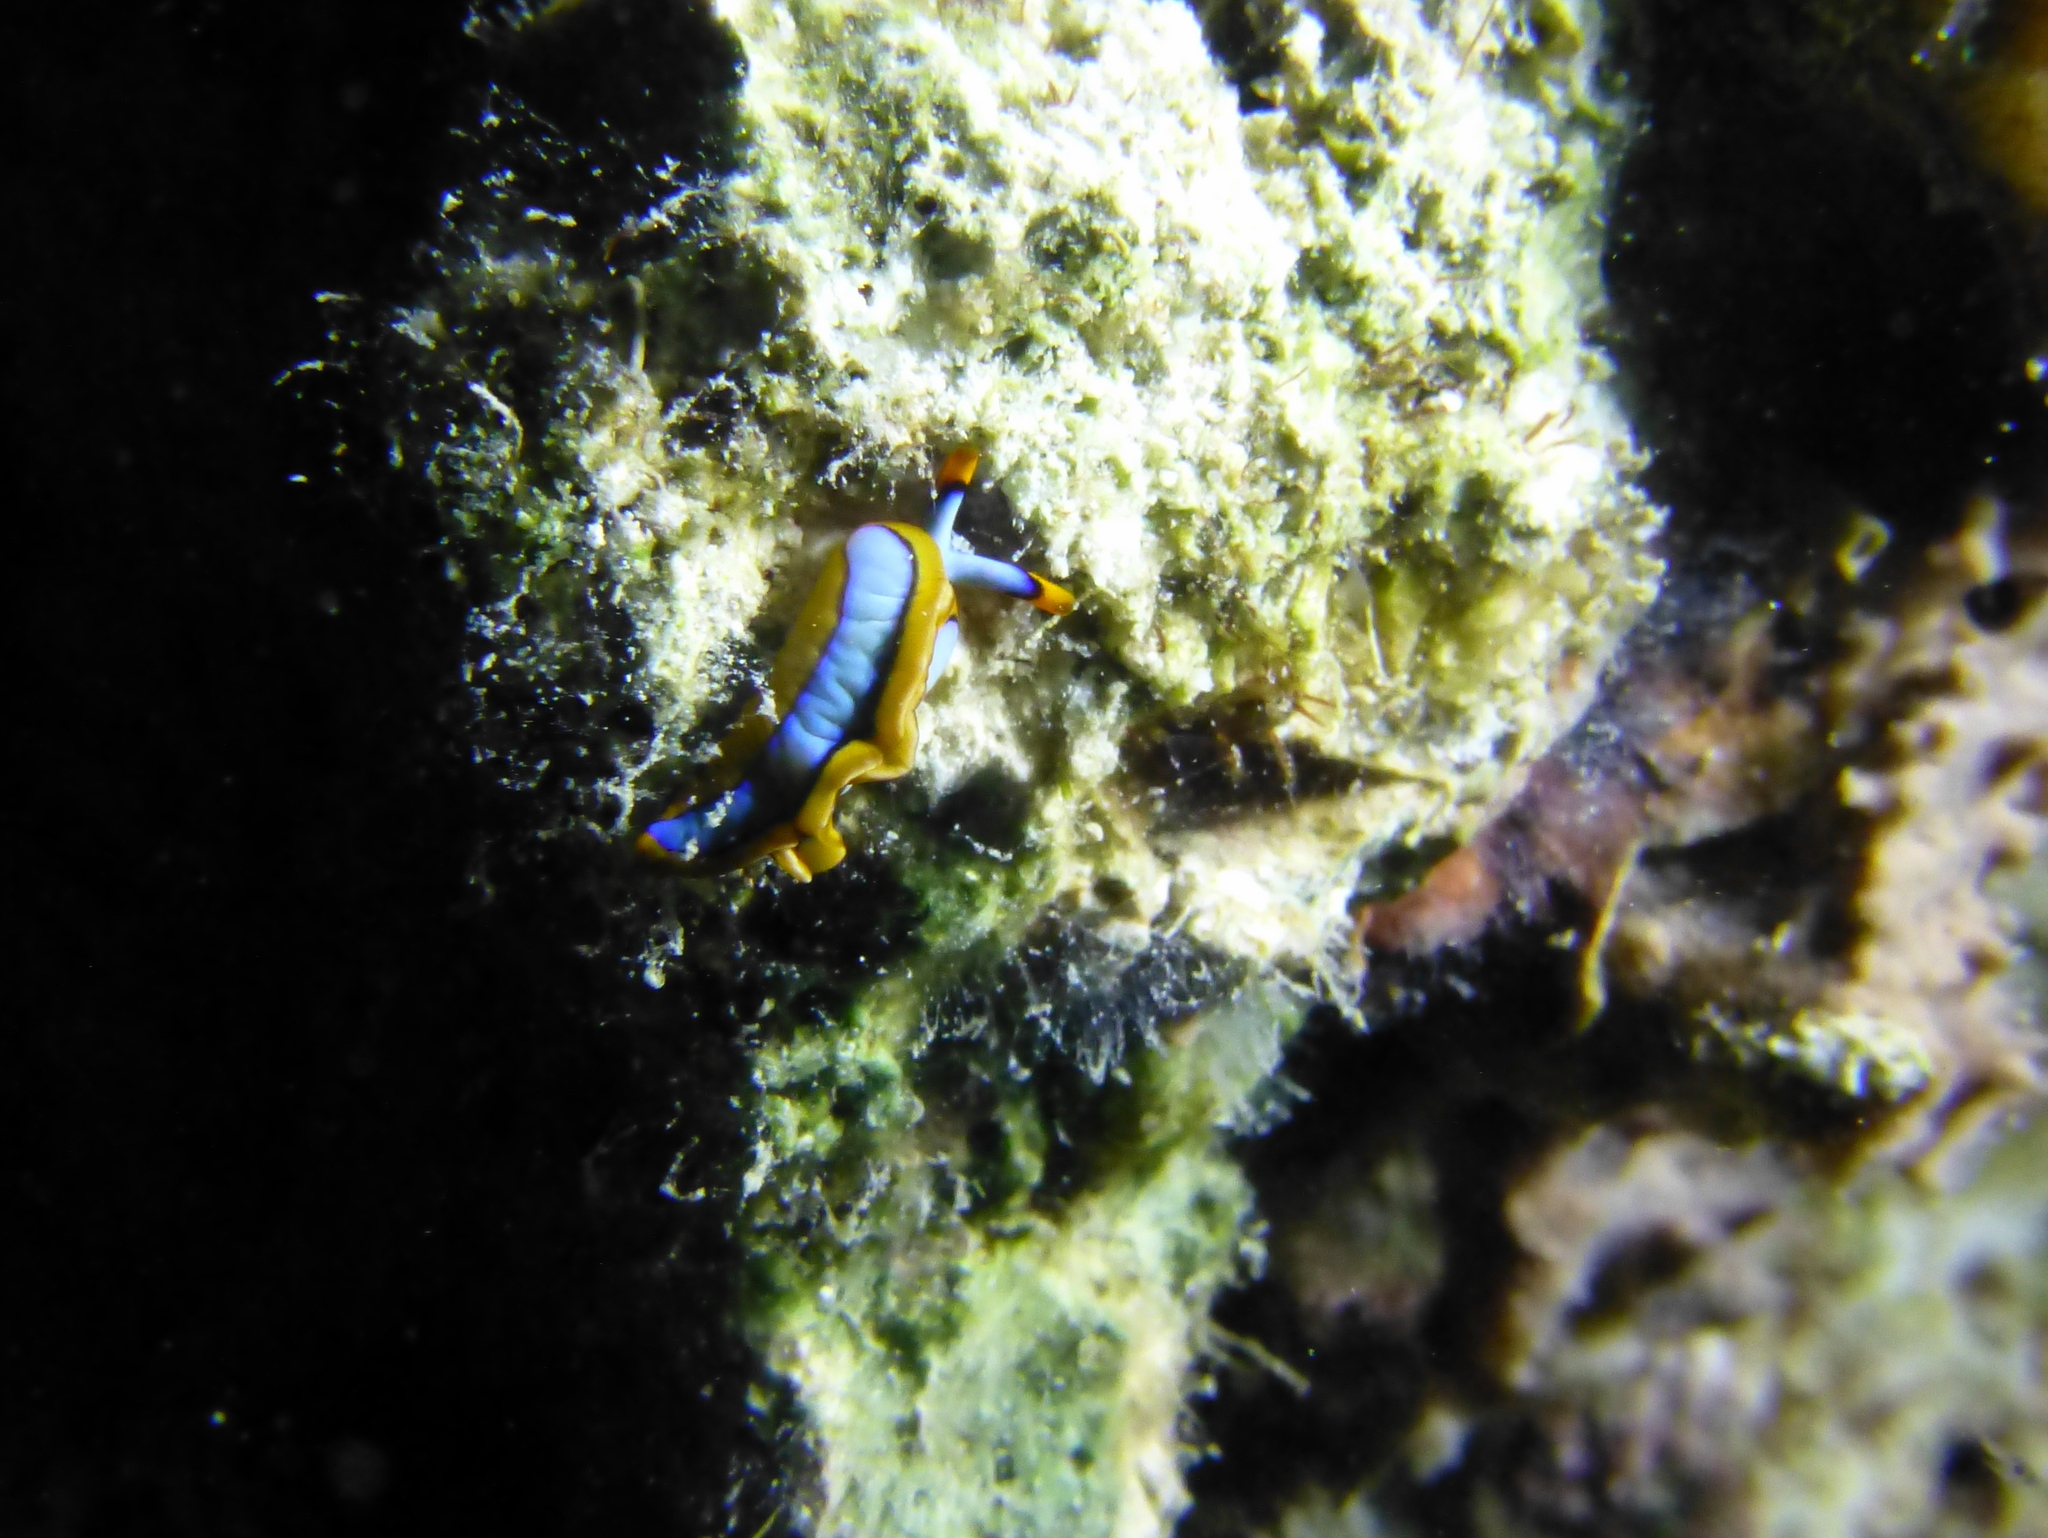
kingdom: Animalia
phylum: Mollusca
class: Gastropoda
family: Plakobranchidae
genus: Thuridilla
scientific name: Thuridilla lineolata
